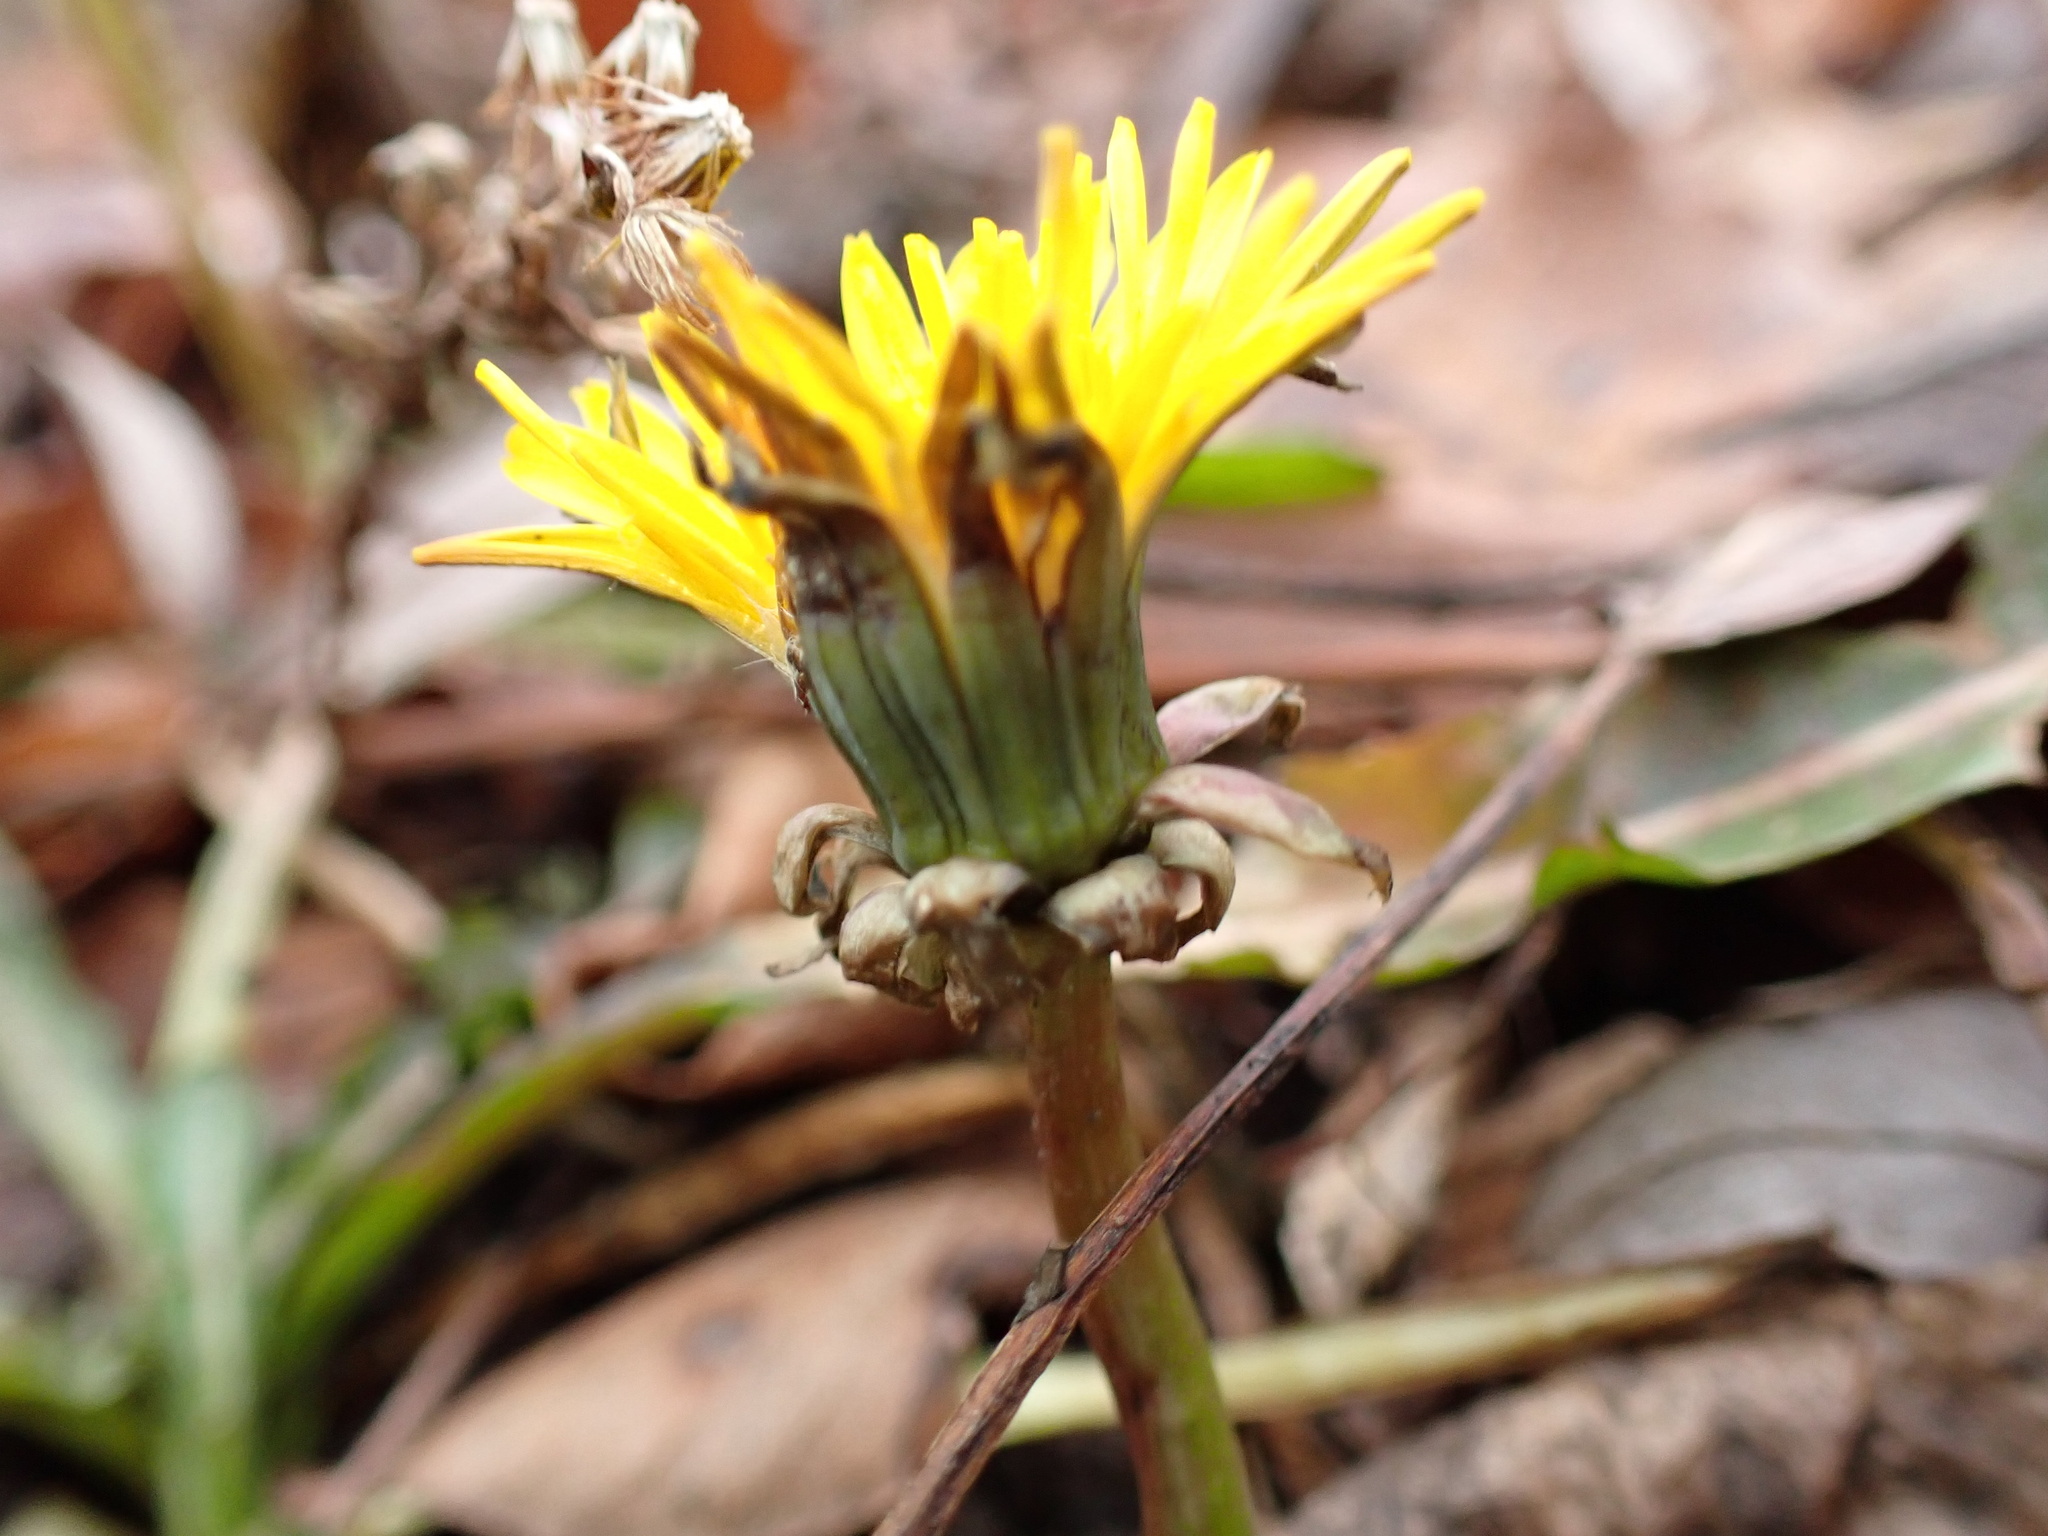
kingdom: Plantae
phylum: Tracheophyta
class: Magnoliopsida
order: Asterales
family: Asteraceae
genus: Taraxacum
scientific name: Taraxacum officinale
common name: Common dandelion
